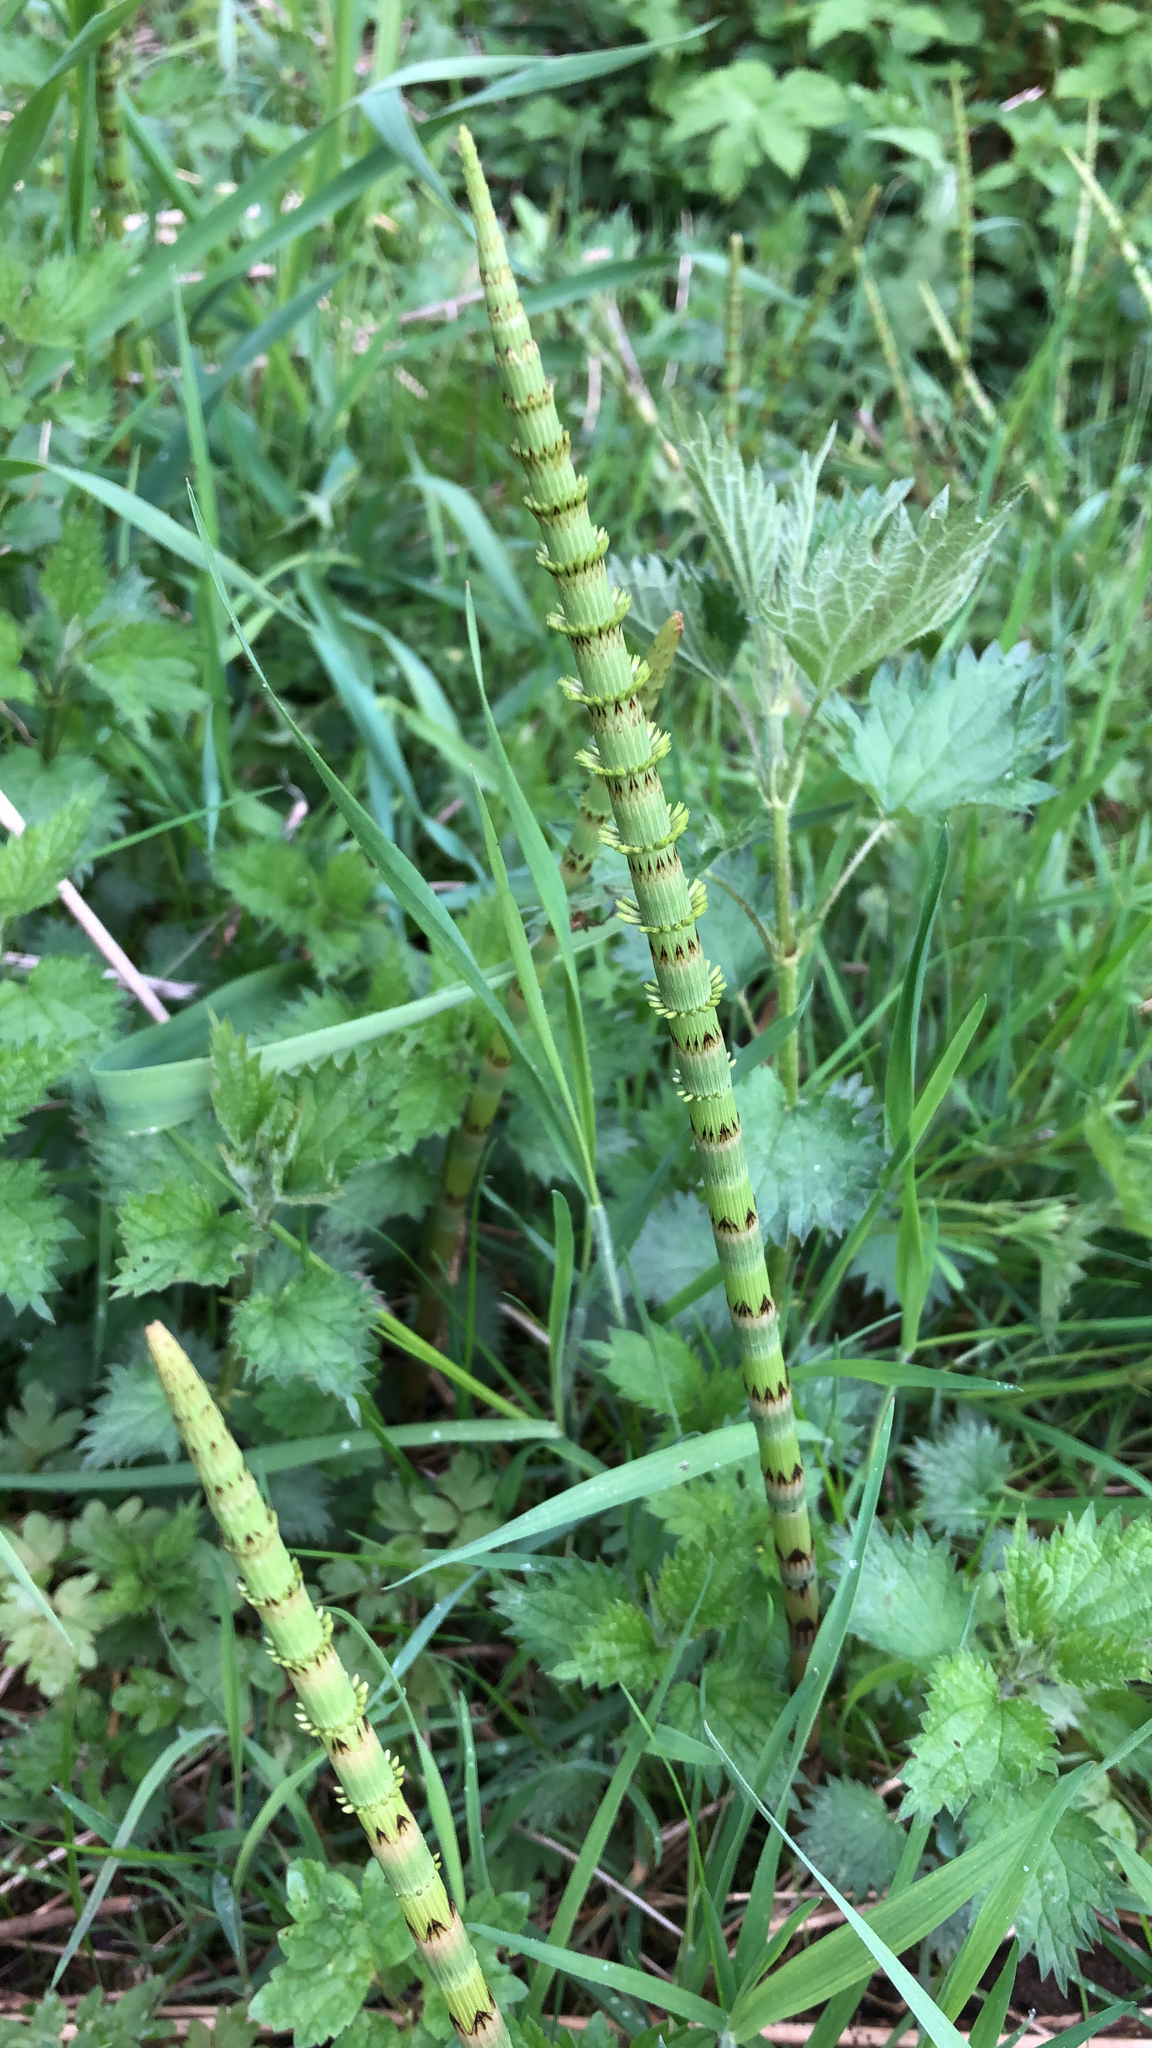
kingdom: Plantae
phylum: Tracheophyta
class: Polypodiopsida
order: Equisetales
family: Equisetaceae
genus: Equisetum
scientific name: Equisetum fluviatile
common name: Water horsetail
